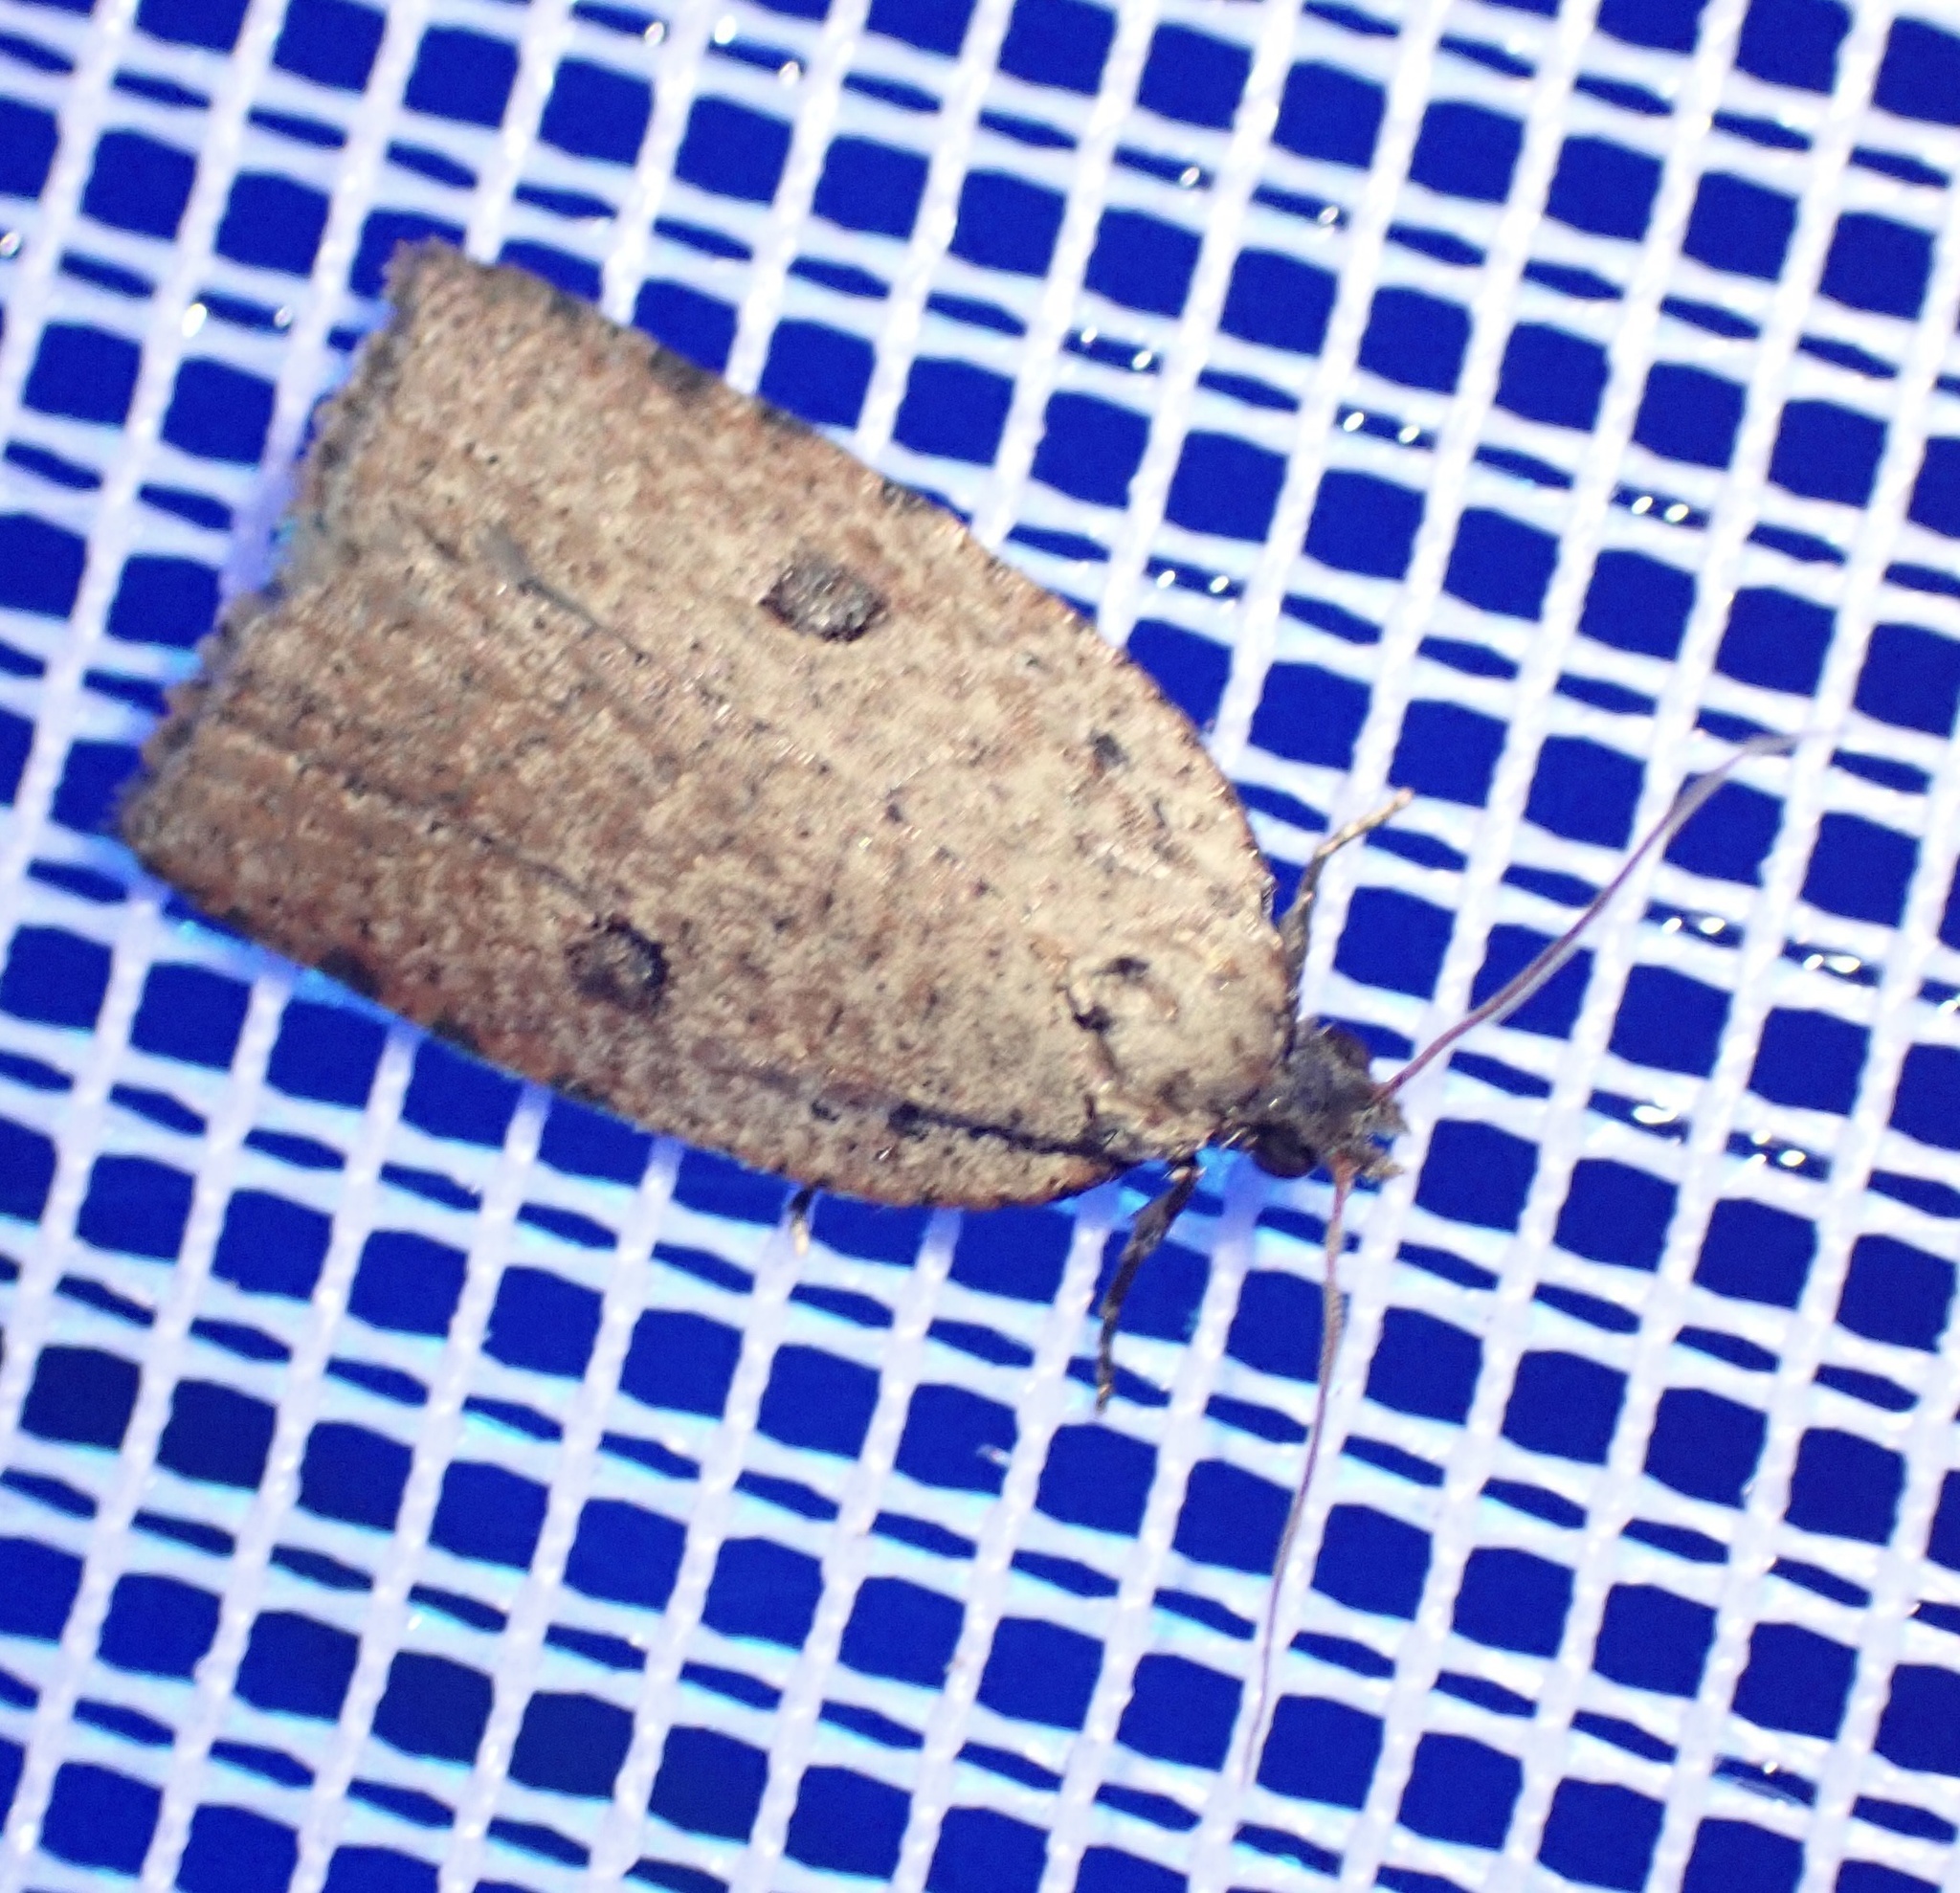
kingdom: Animalia
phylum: Arthropoda
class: Insecta
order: Lepidoptera
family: Tortricidae
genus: Meritastis
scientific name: Meritastis polygraphana
